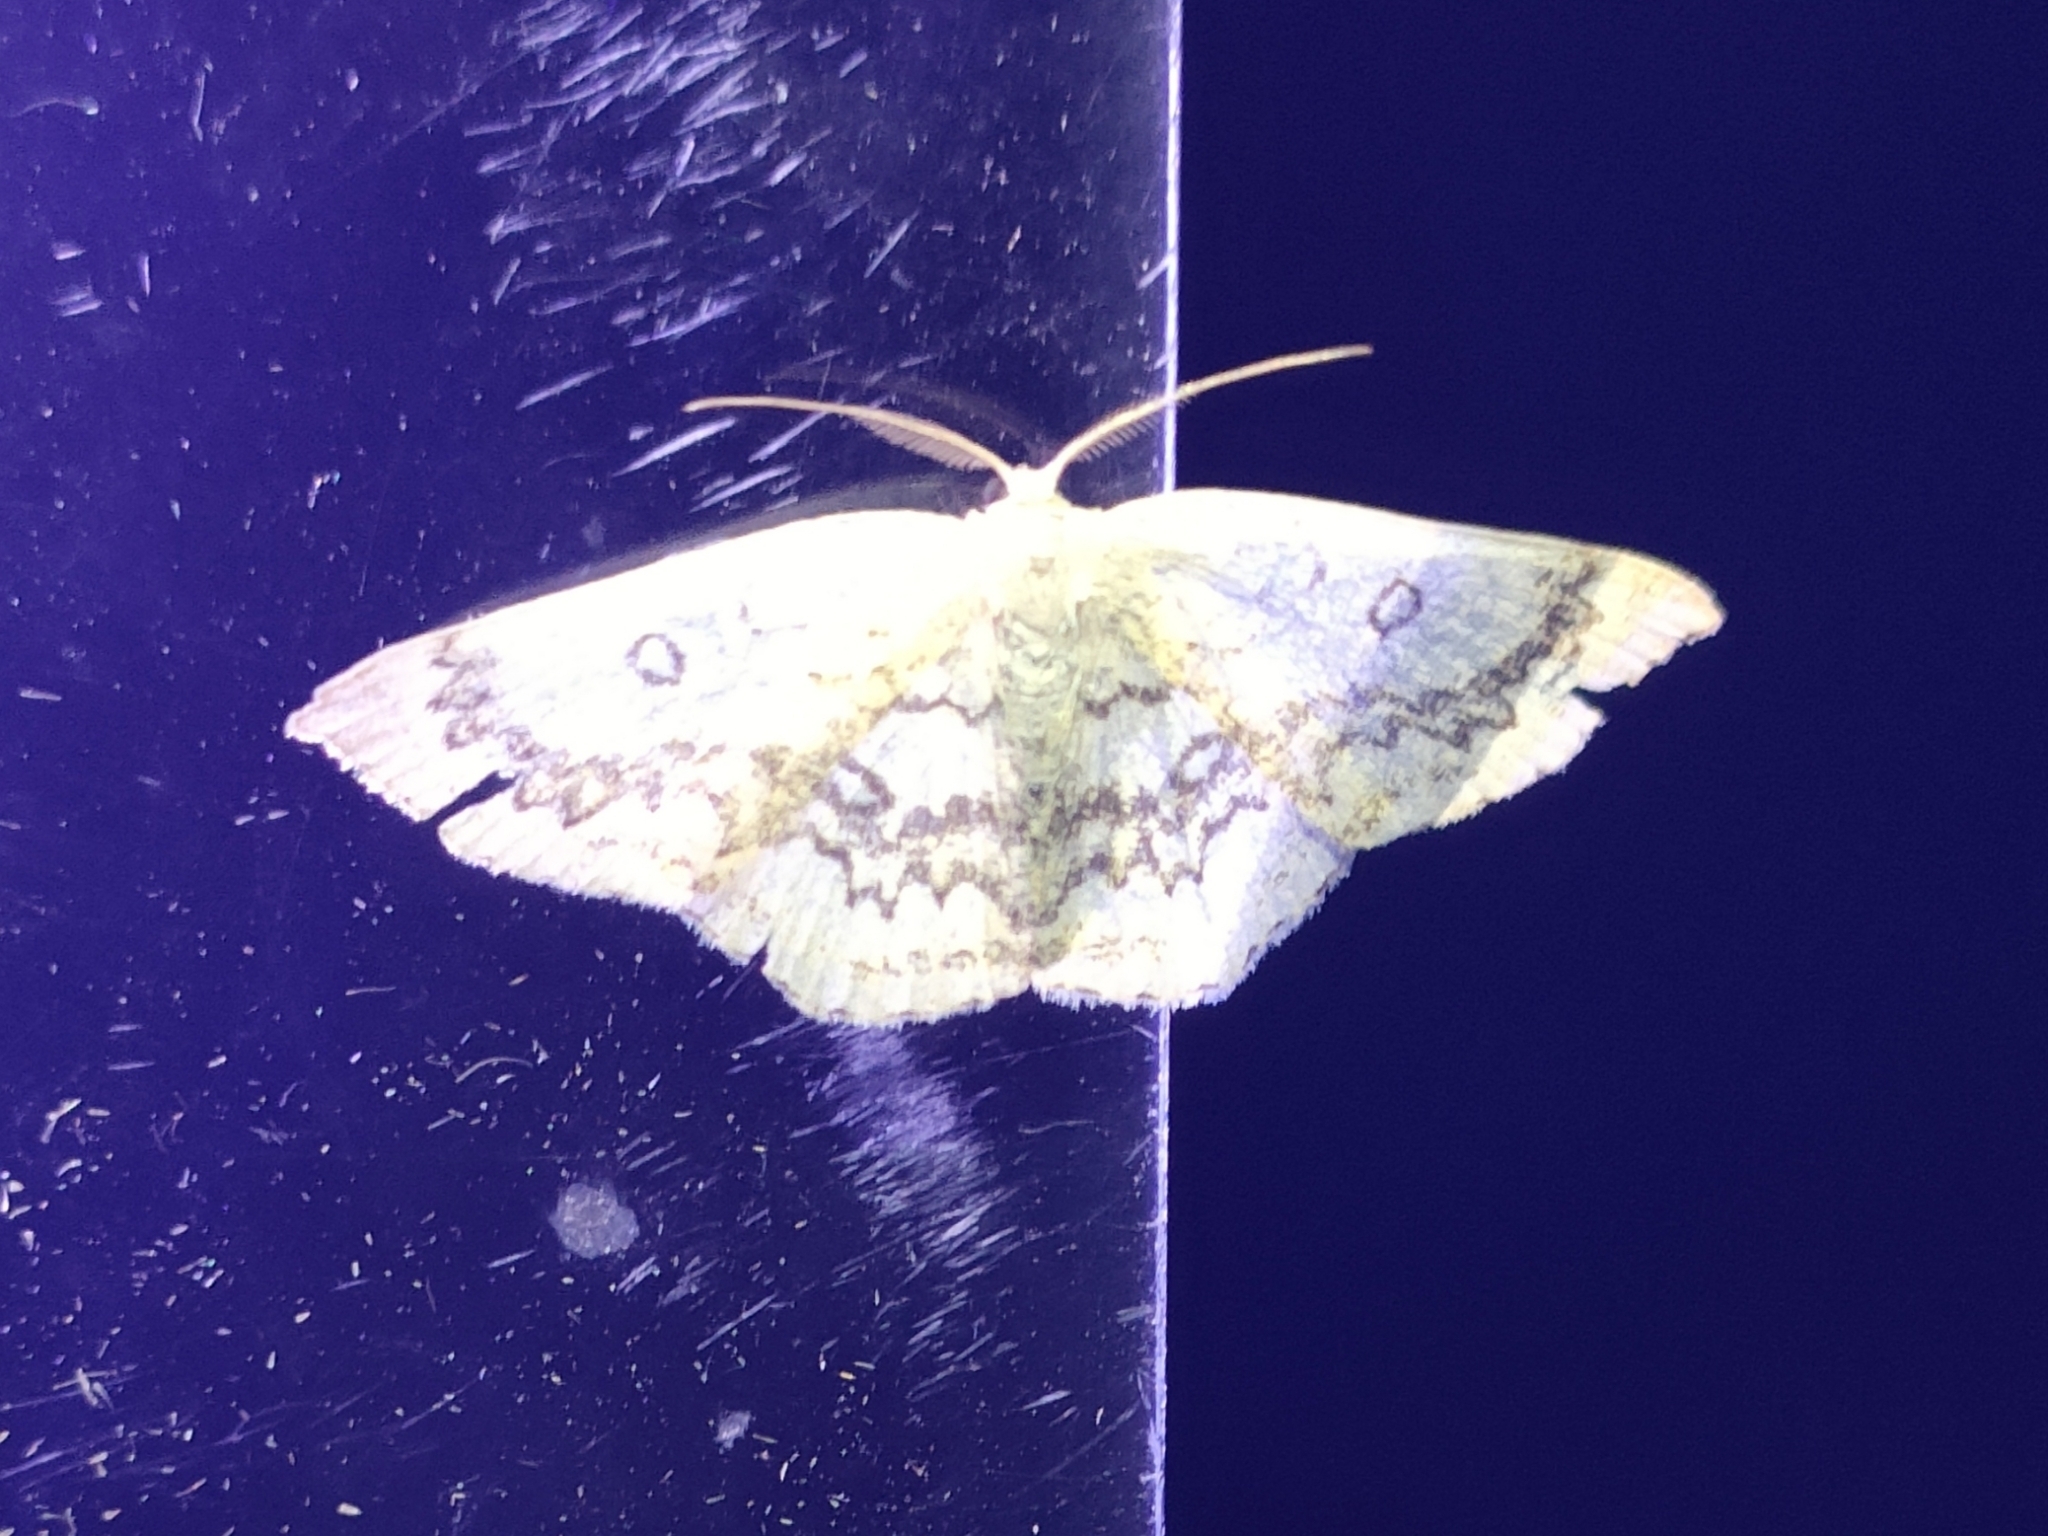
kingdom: Animalia
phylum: Arthropoda
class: Insecta
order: Lepidoptera
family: Geometridae
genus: Cyclophora
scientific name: Cyclophora annularia
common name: Mocha
